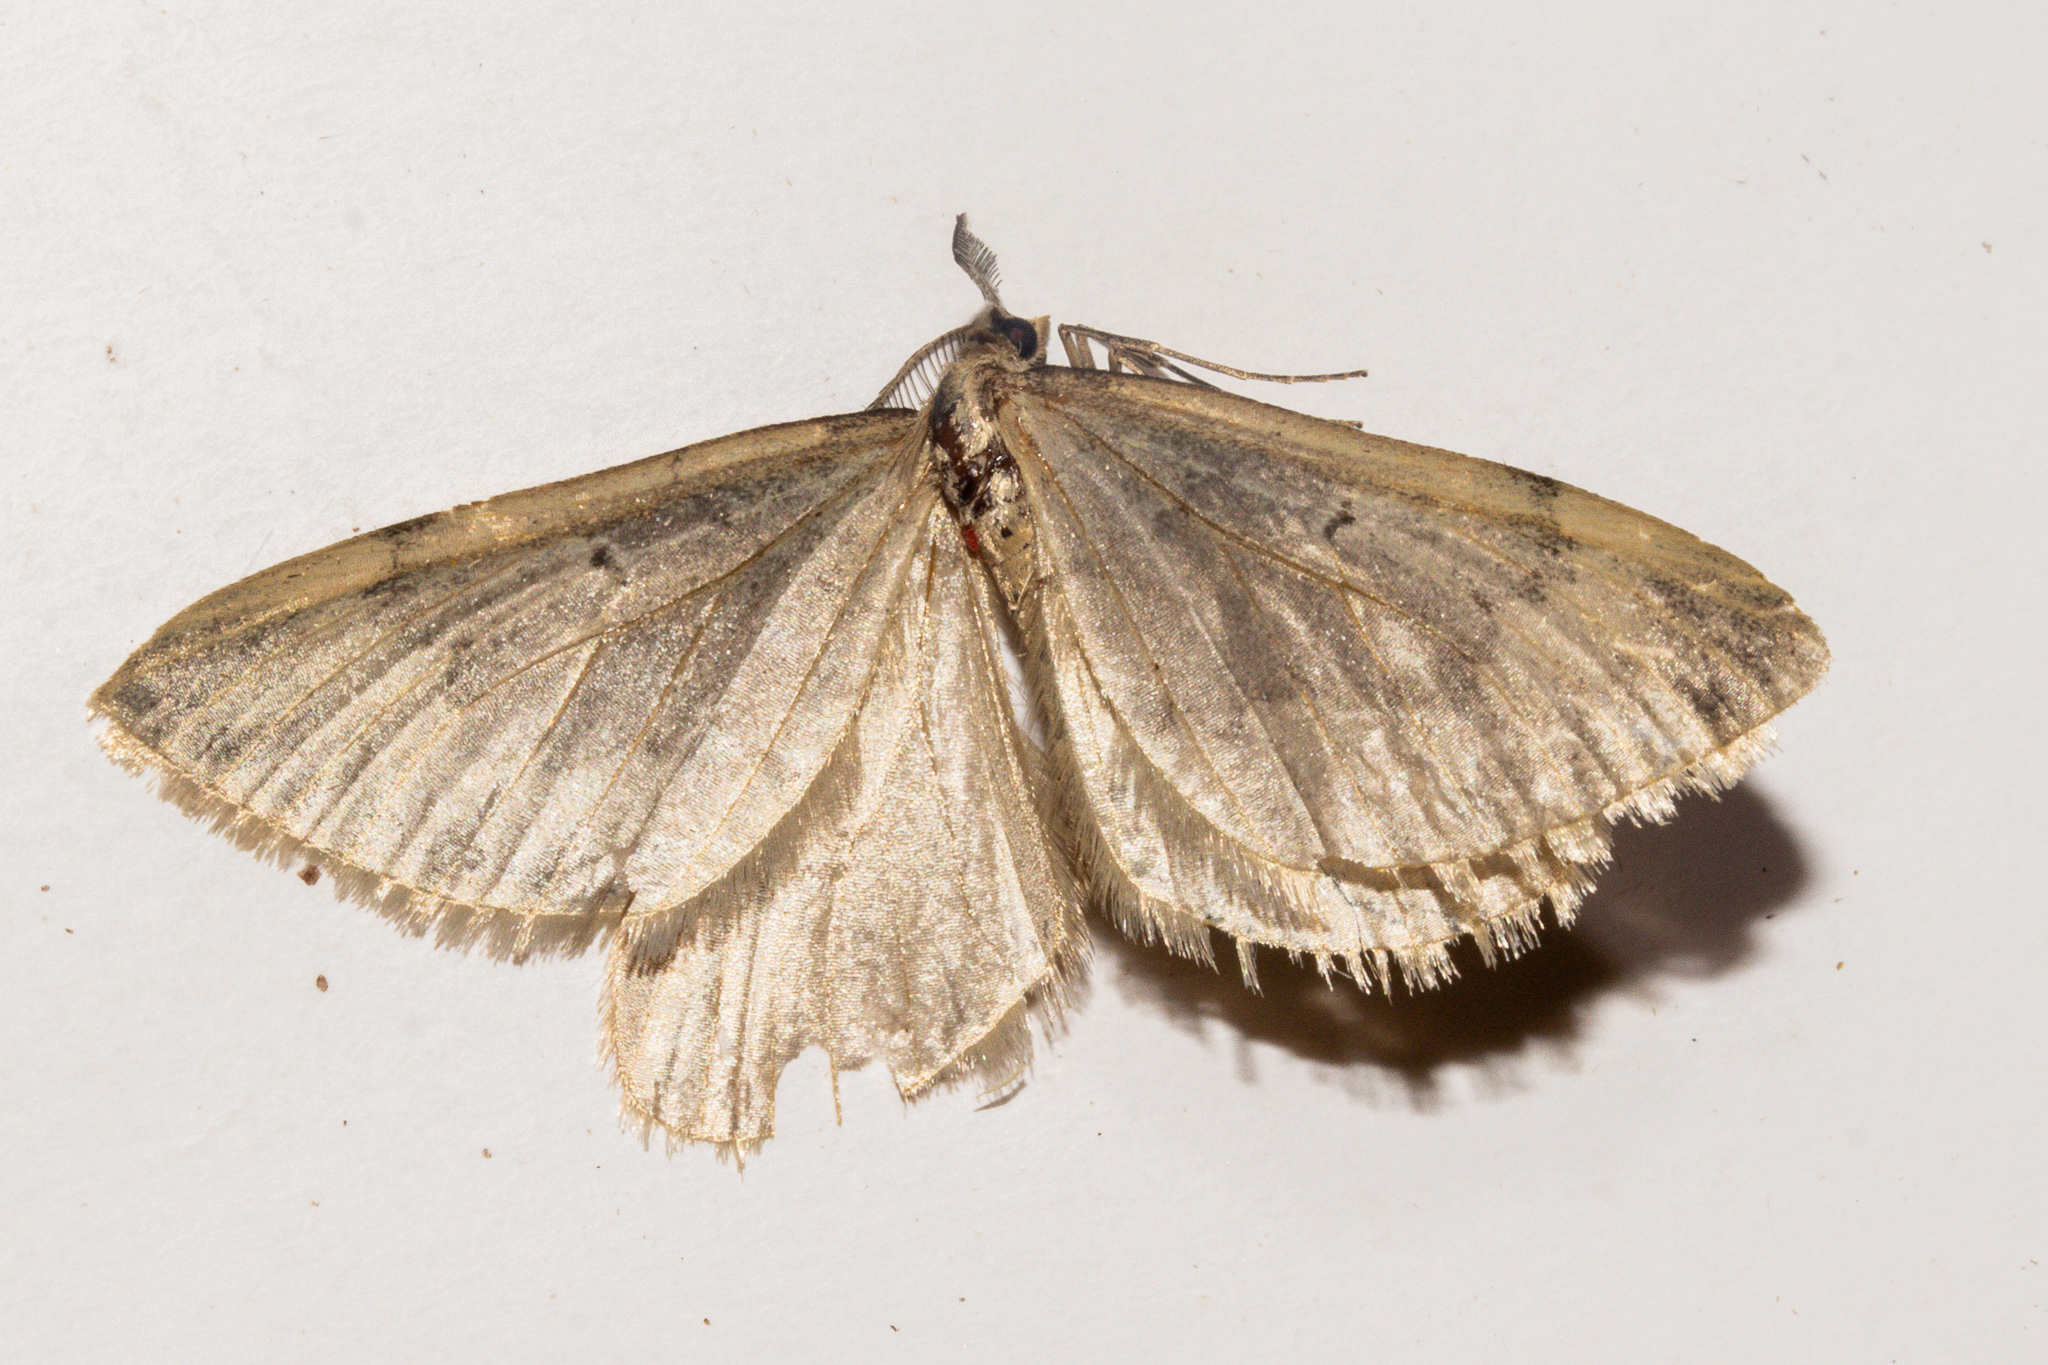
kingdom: Animalia
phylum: Arthropoda
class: Insecta
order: Lepidoptera
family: Geometridae
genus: Asaphodes
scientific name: Asaphodes helias
